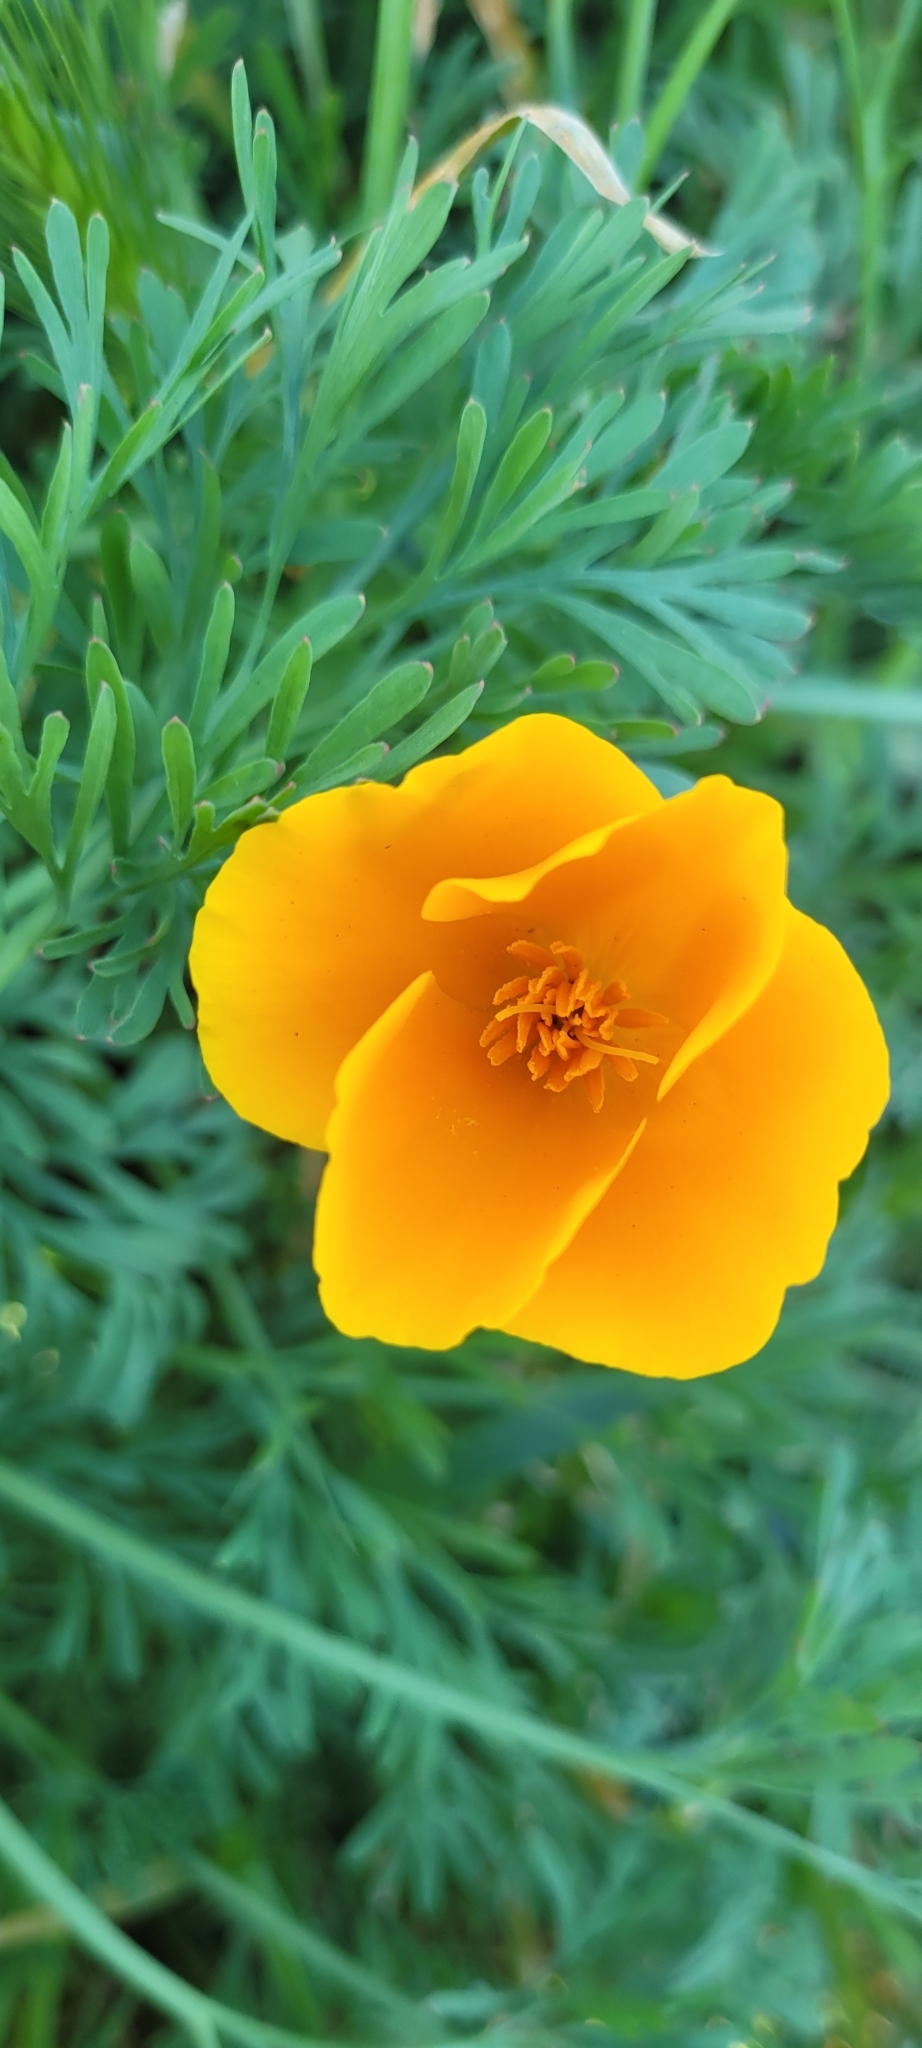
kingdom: Plantae
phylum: Tracheophyta
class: Magnoliopsida
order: Ranunculales
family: Papaveraceae
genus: Eschscholzia
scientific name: Eschscholzia californica
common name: California poppy
